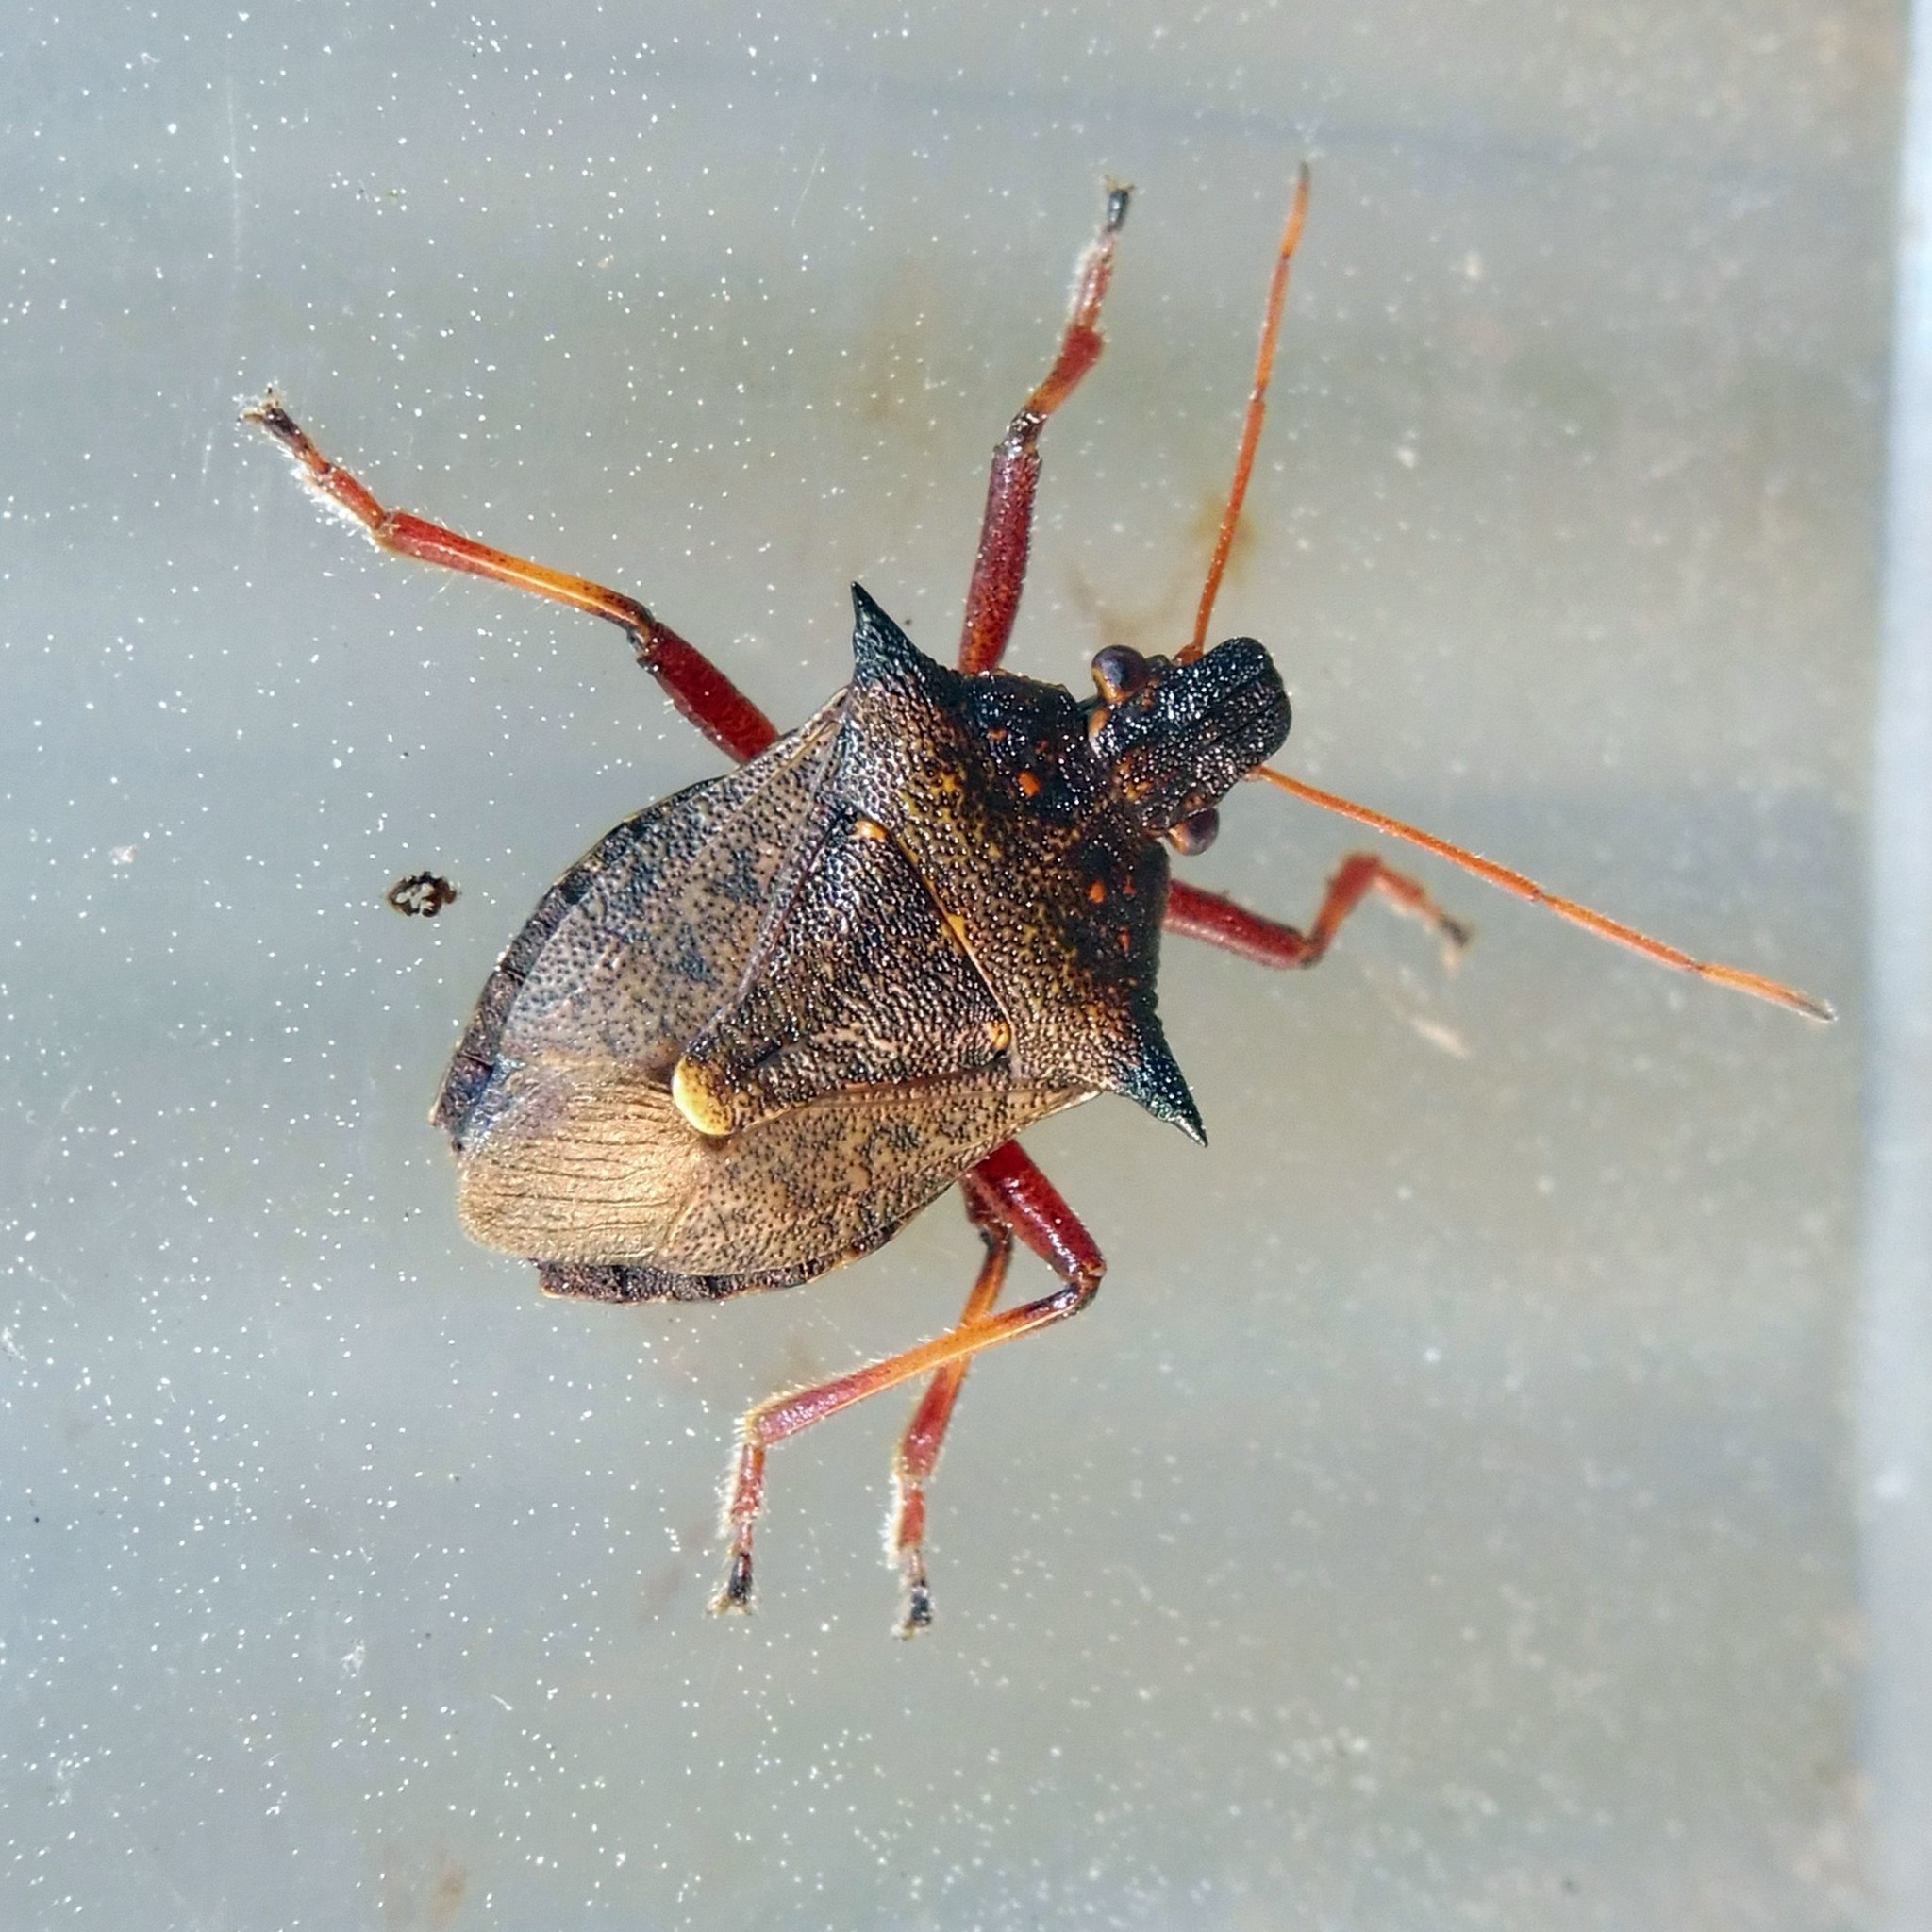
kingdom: Animalia
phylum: Arthropoda
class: Insecta
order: Hemiptera
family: Pentatomidae
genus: Picromerus
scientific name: Picromerus bidens
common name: Spiked shieldbug
